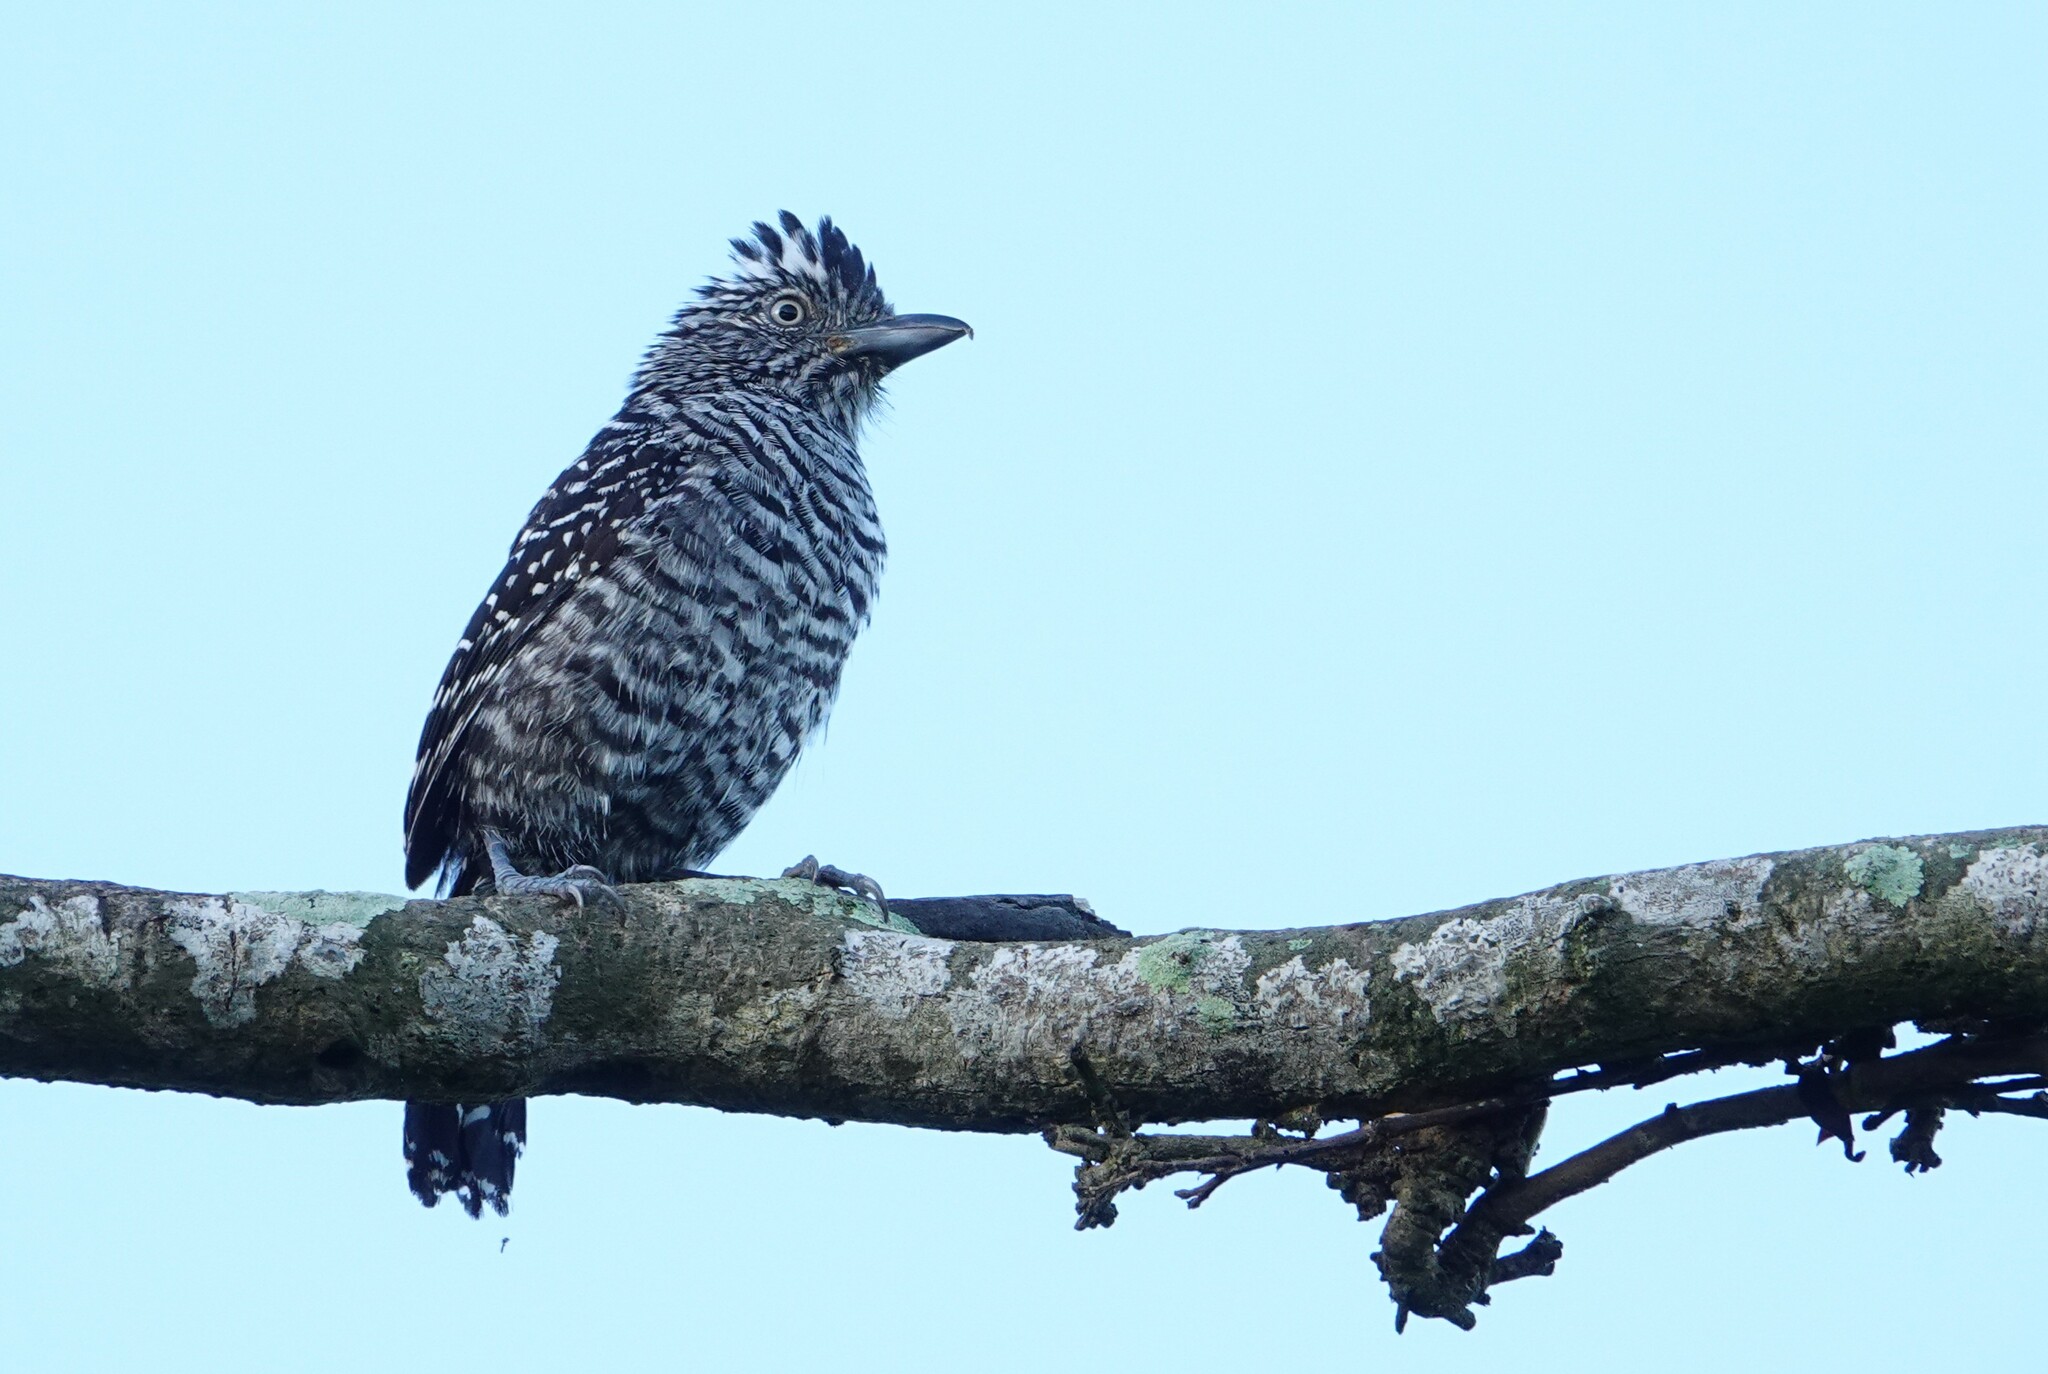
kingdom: Animalia
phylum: Chordata
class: Aves
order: Passeriformes
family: Thamnophilidae
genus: Thamnophilus
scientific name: Thamnophilus doliatus
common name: Barred antshrike
